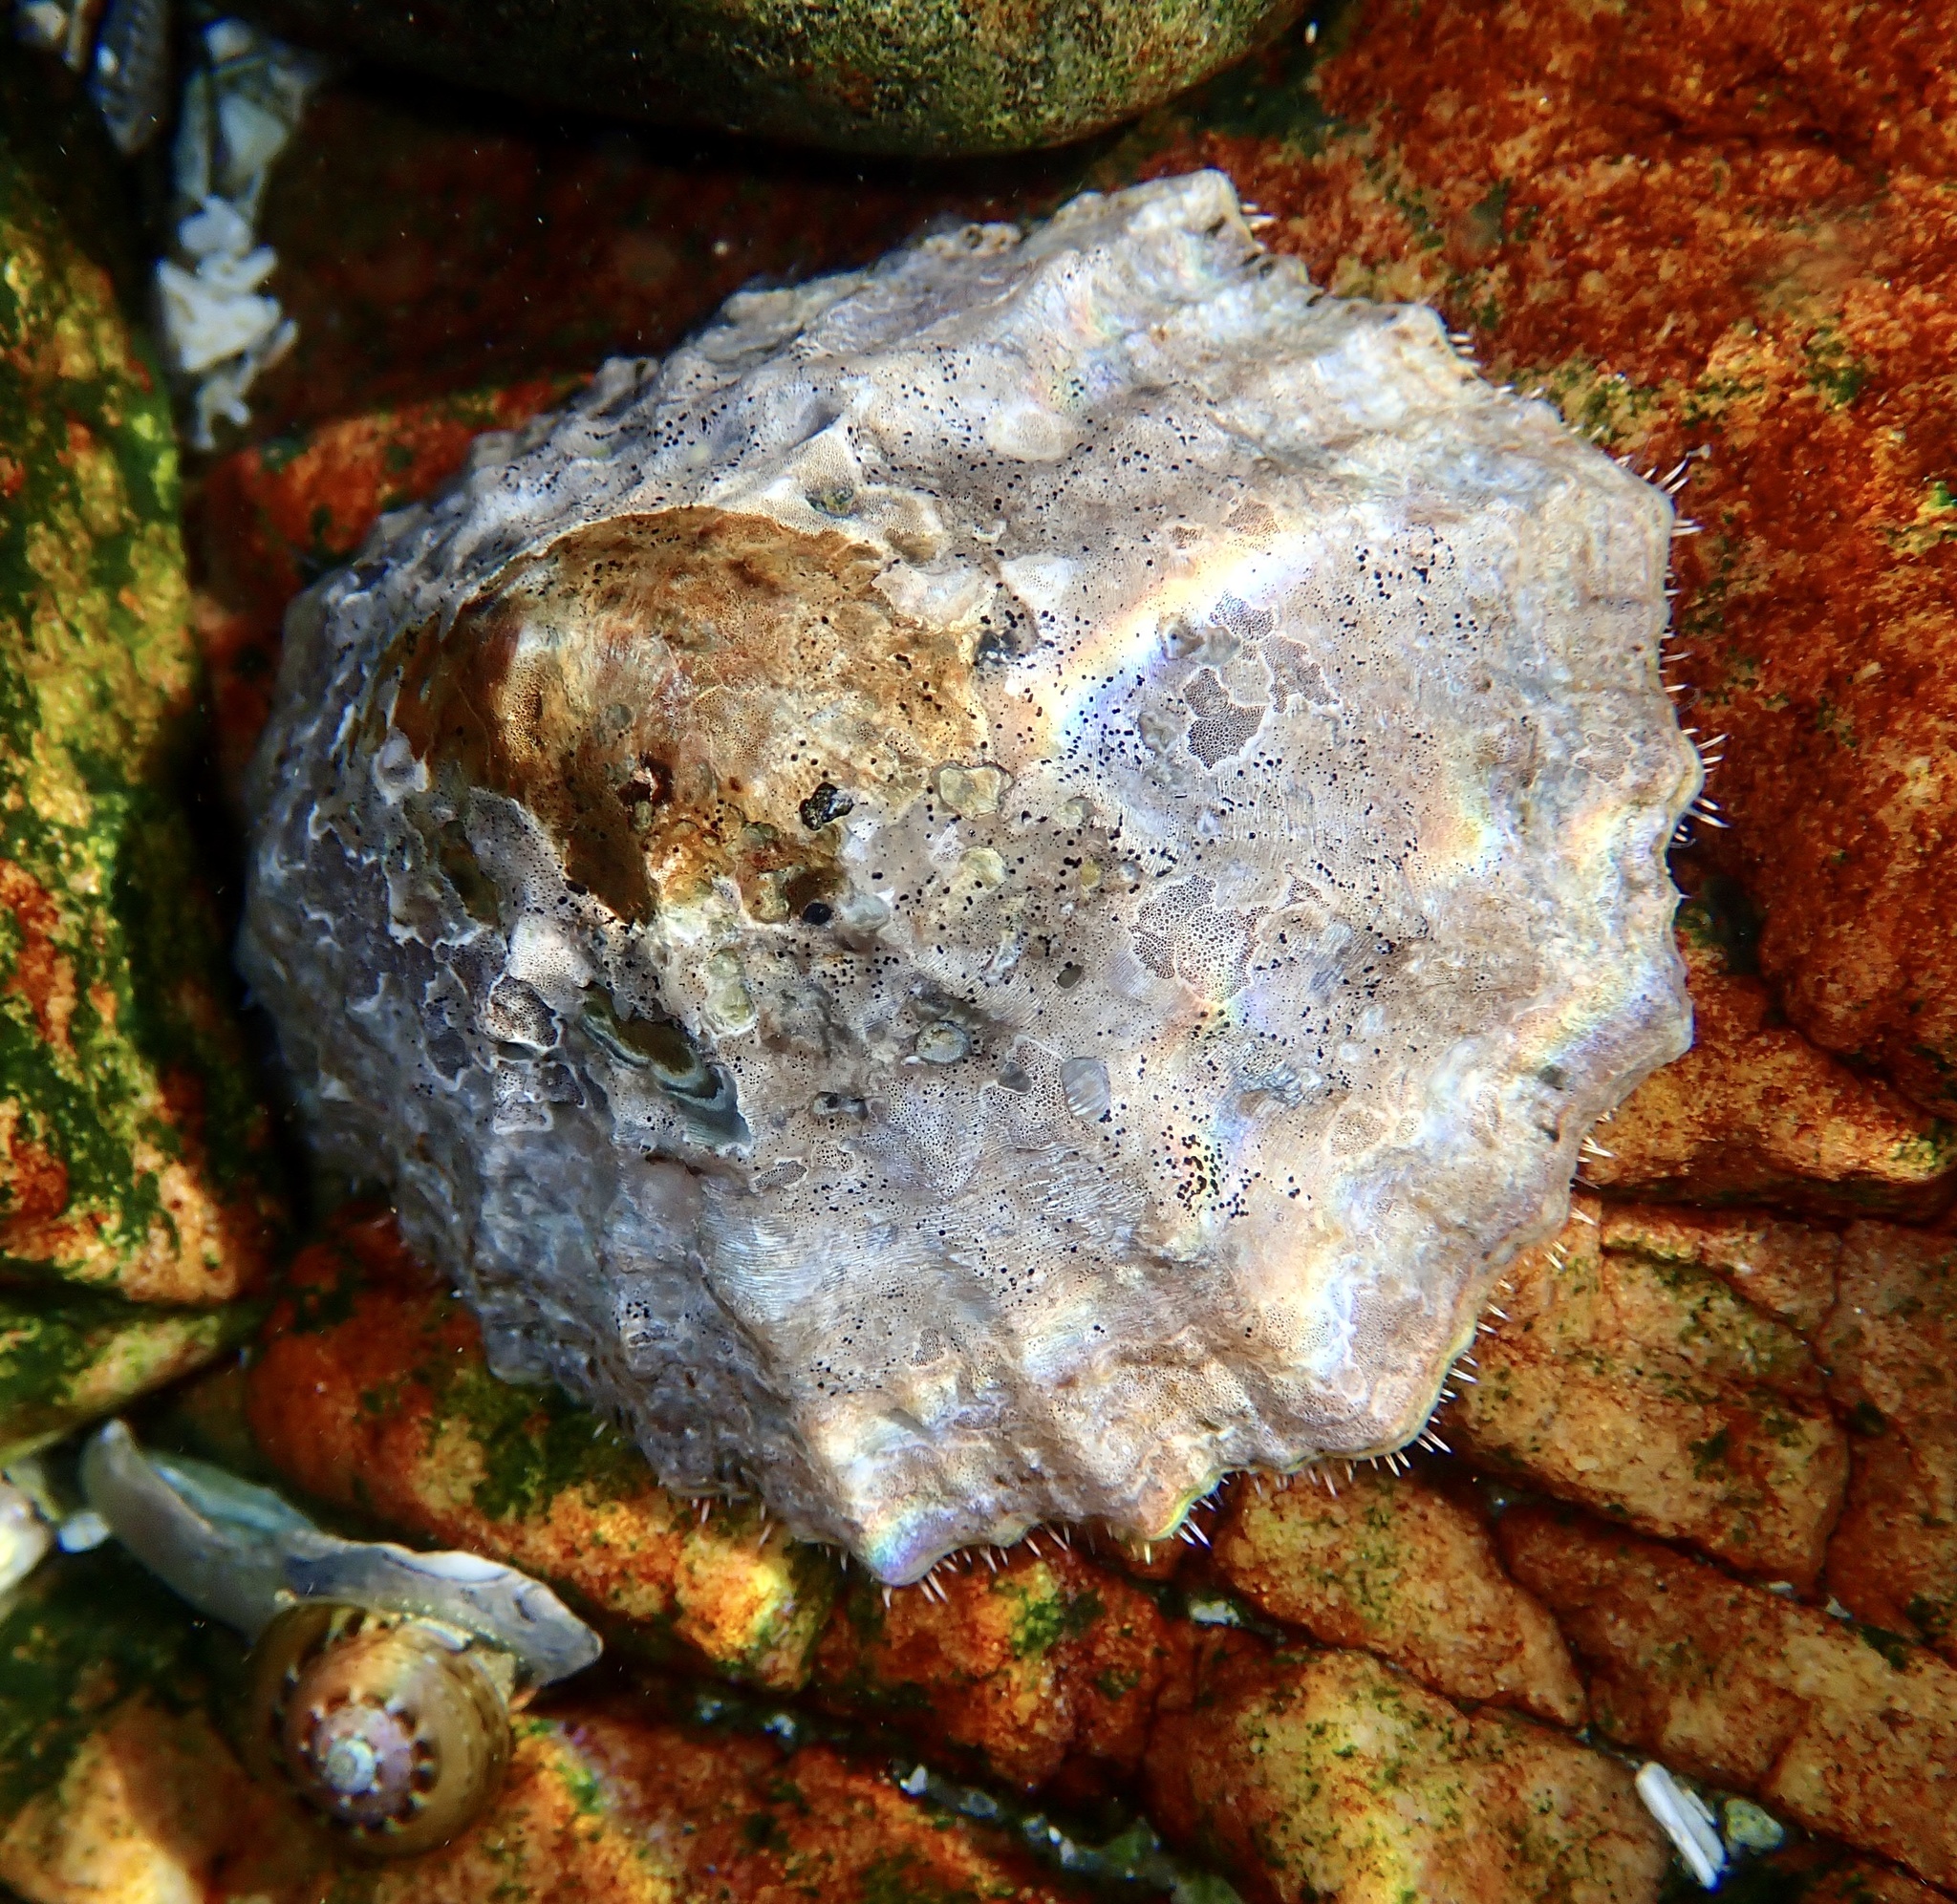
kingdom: Animalia
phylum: Mollusca
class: Gastropoda
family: Patellidae
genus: Cymbula
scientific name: Cymbula granatina
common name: Granite limpet
